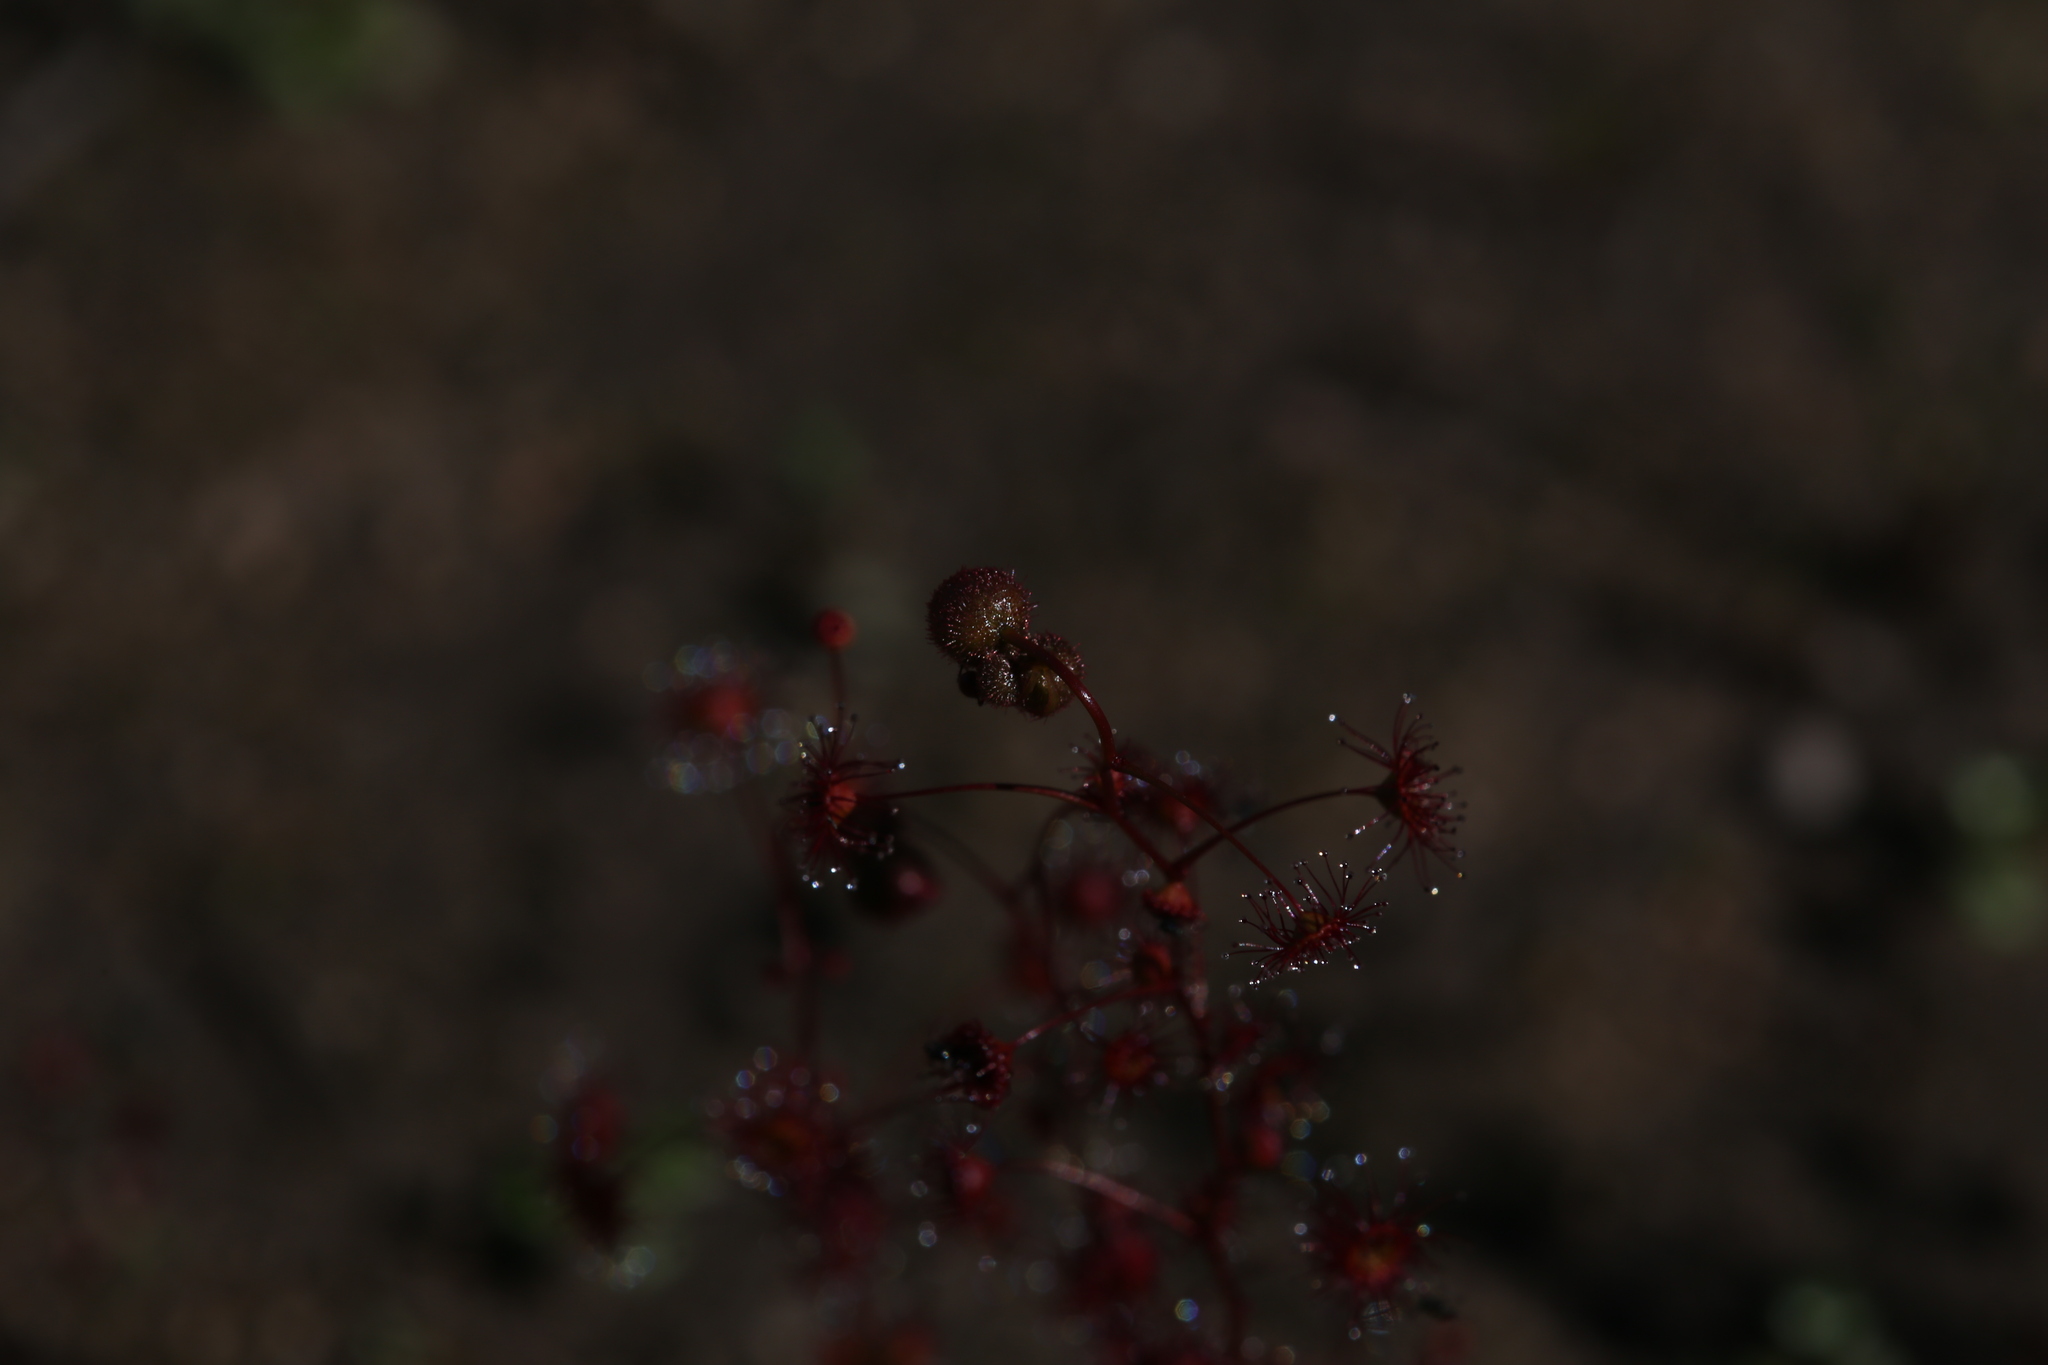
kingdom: Plantae
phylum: Tracheophyta
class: Magnoliopsida
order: Caryophyllales
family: Droseraceae
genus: Drosera
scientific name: Drosera menziesii
